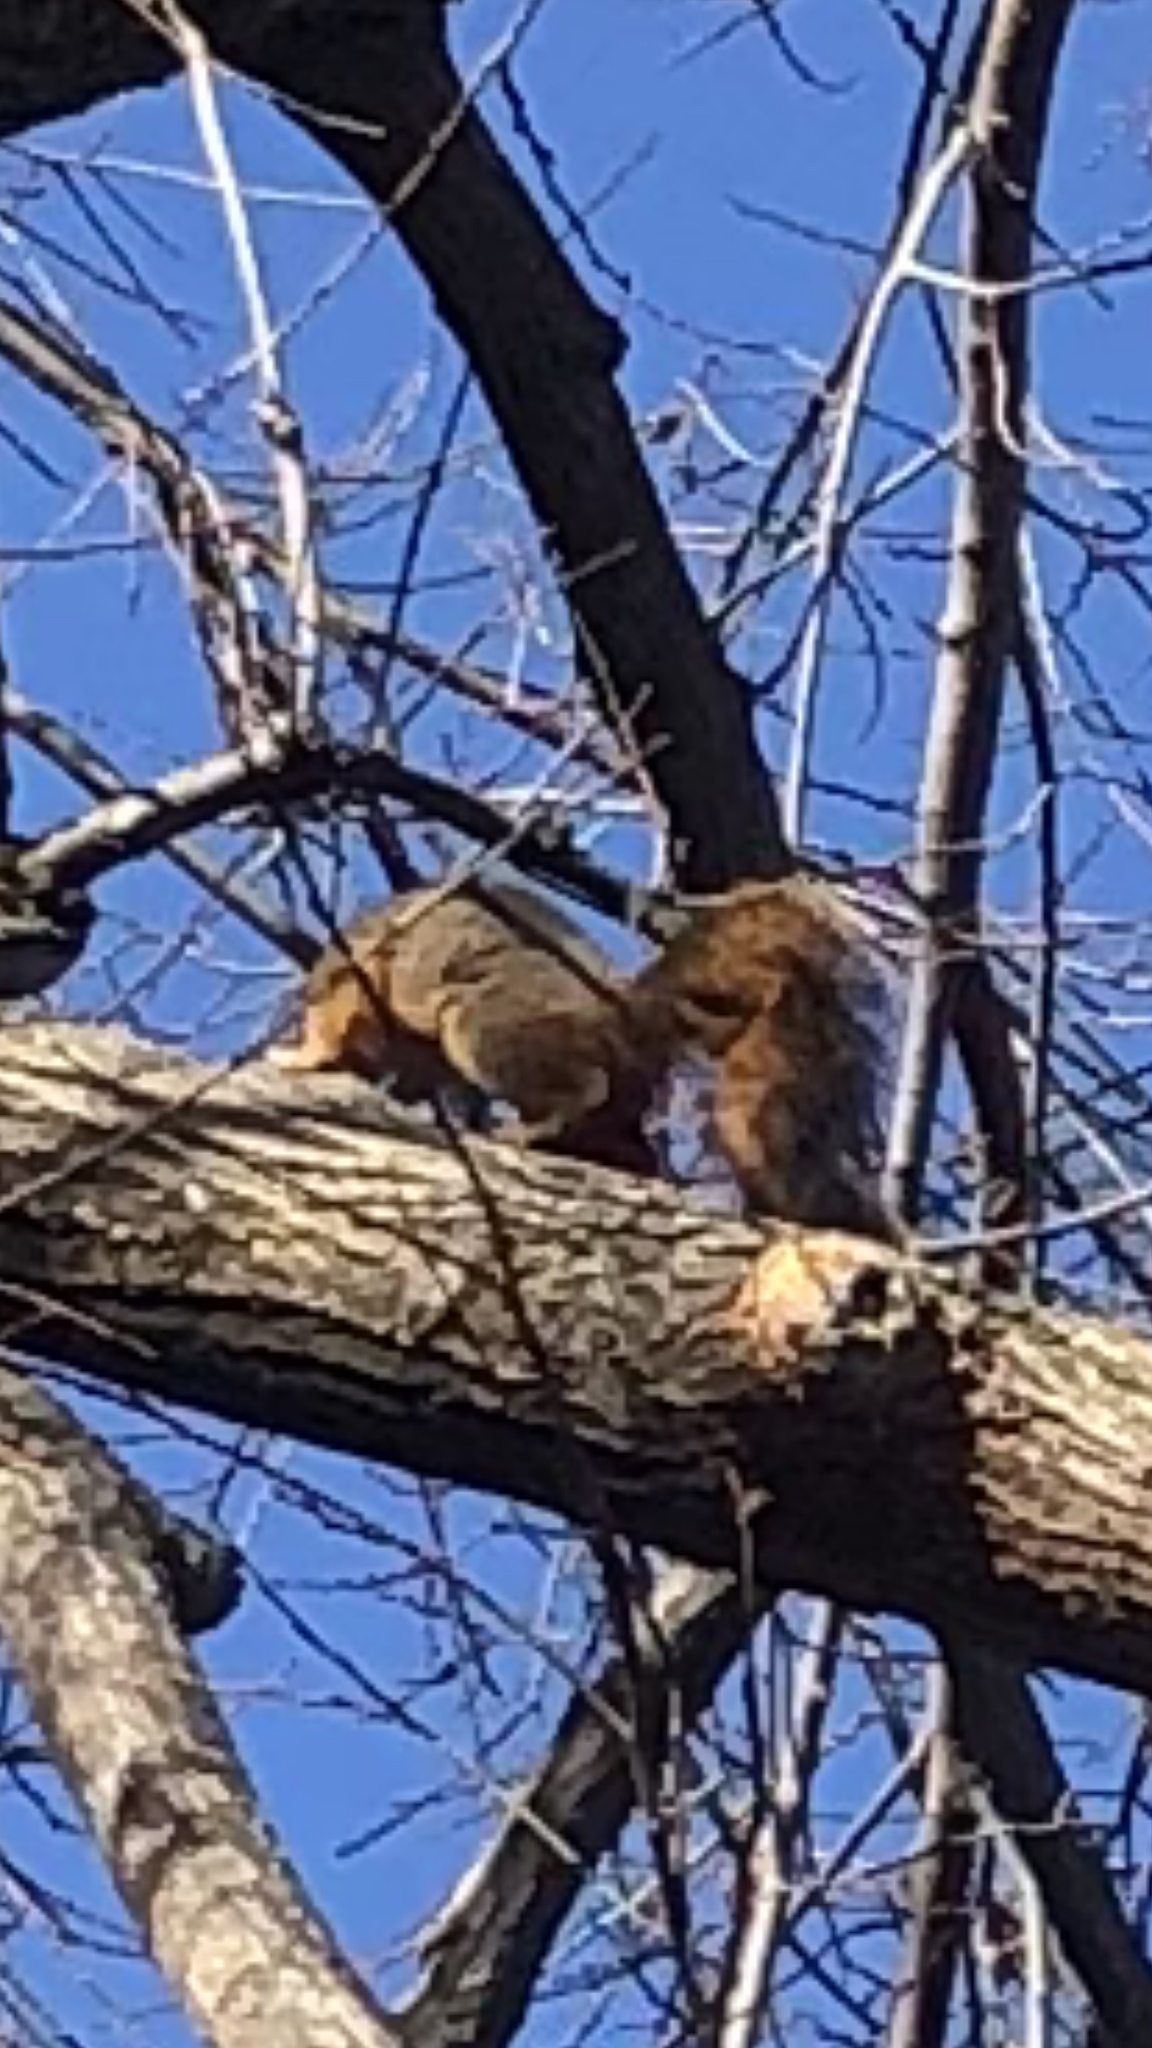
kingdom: Animalia
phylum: Chordata
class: Mammalia
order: Rodentia
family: Sciuridae
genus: Sciurus
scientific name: Sciurus niger
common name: Fox squirrel
